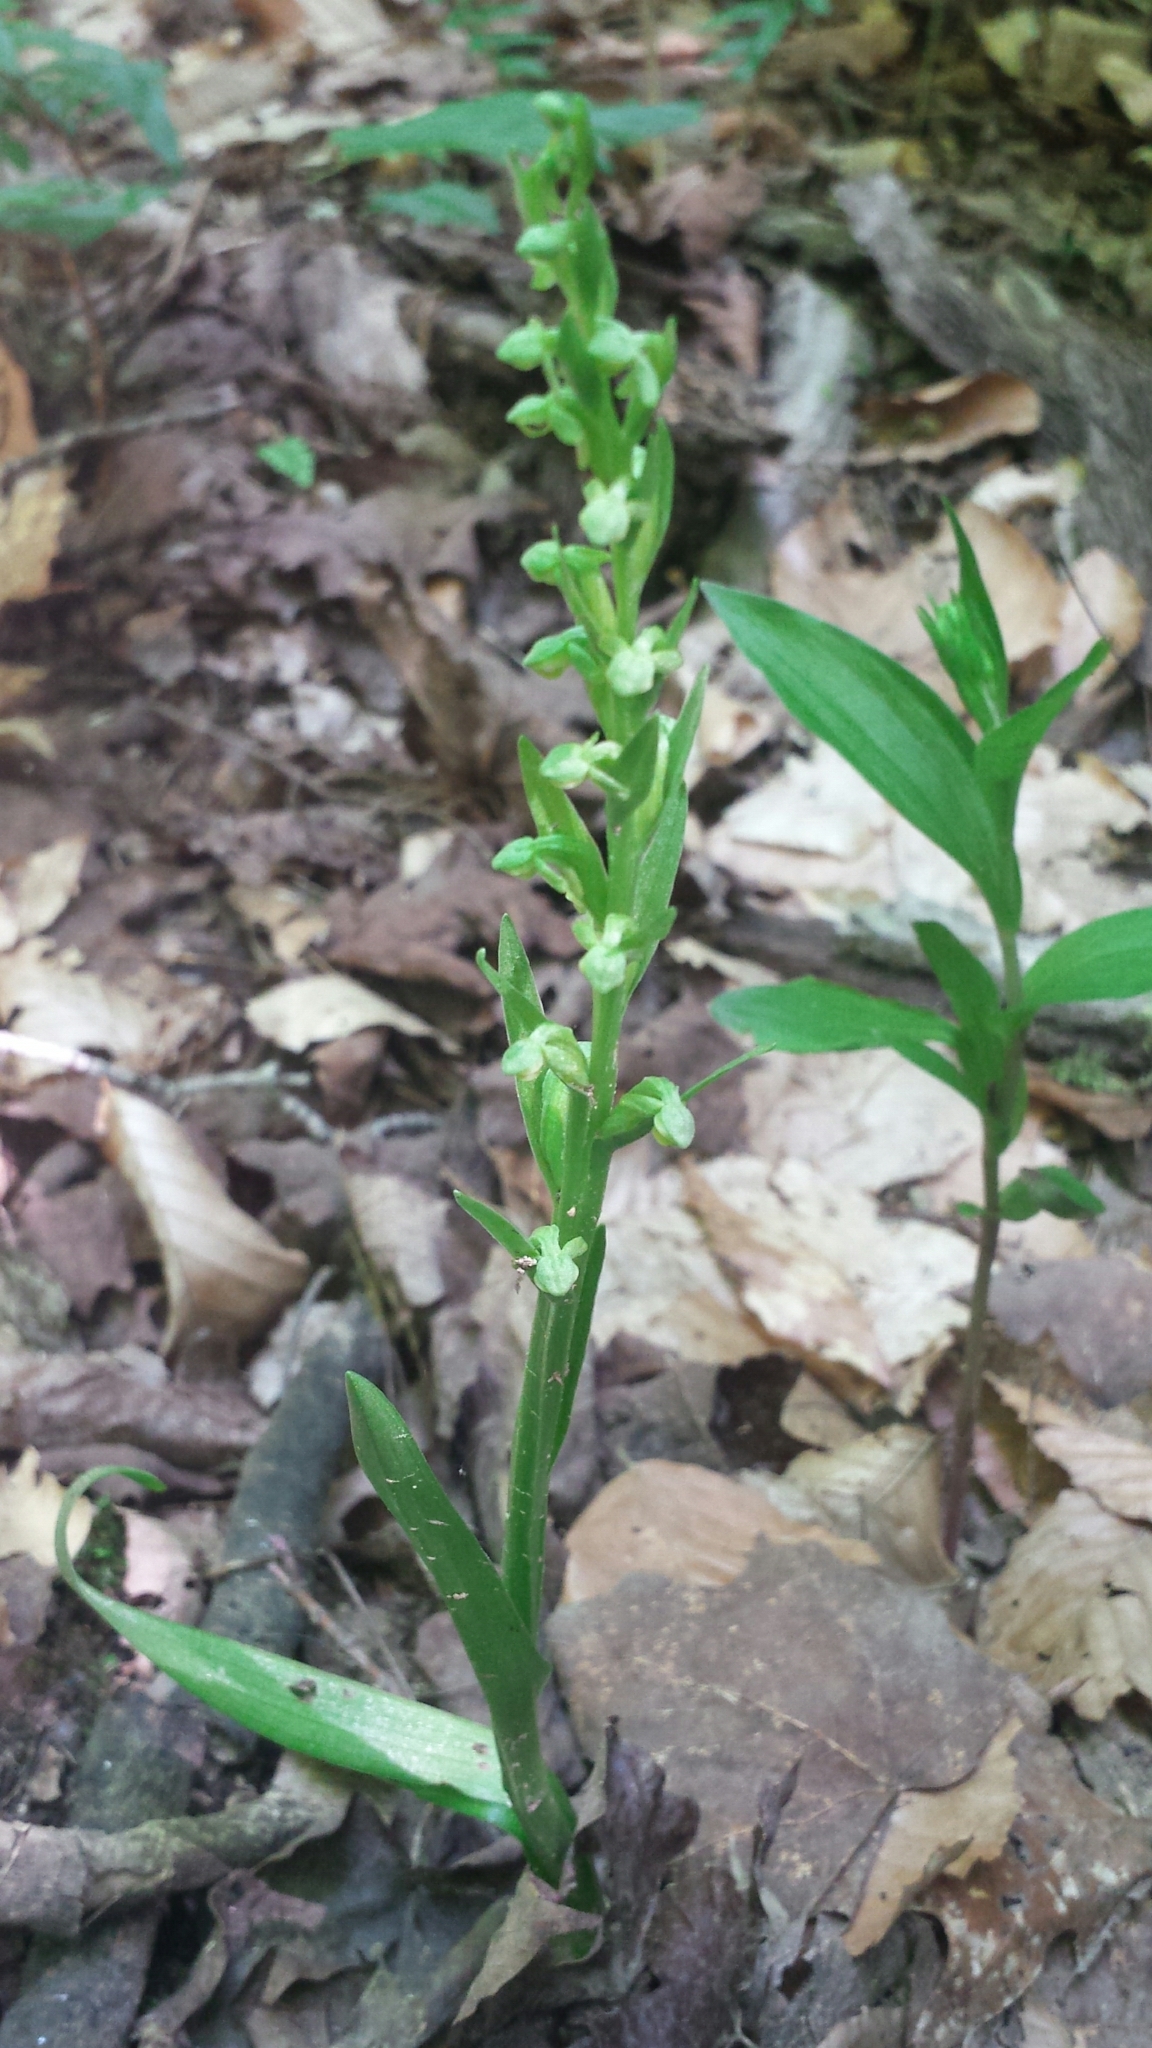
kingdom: Plantae
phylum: Tracheophyta
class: Liliopsida
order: Asparagales
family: Orchidaceae
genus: Platanthera
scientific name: Platanthera aquilonis
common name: Northern green orchid
